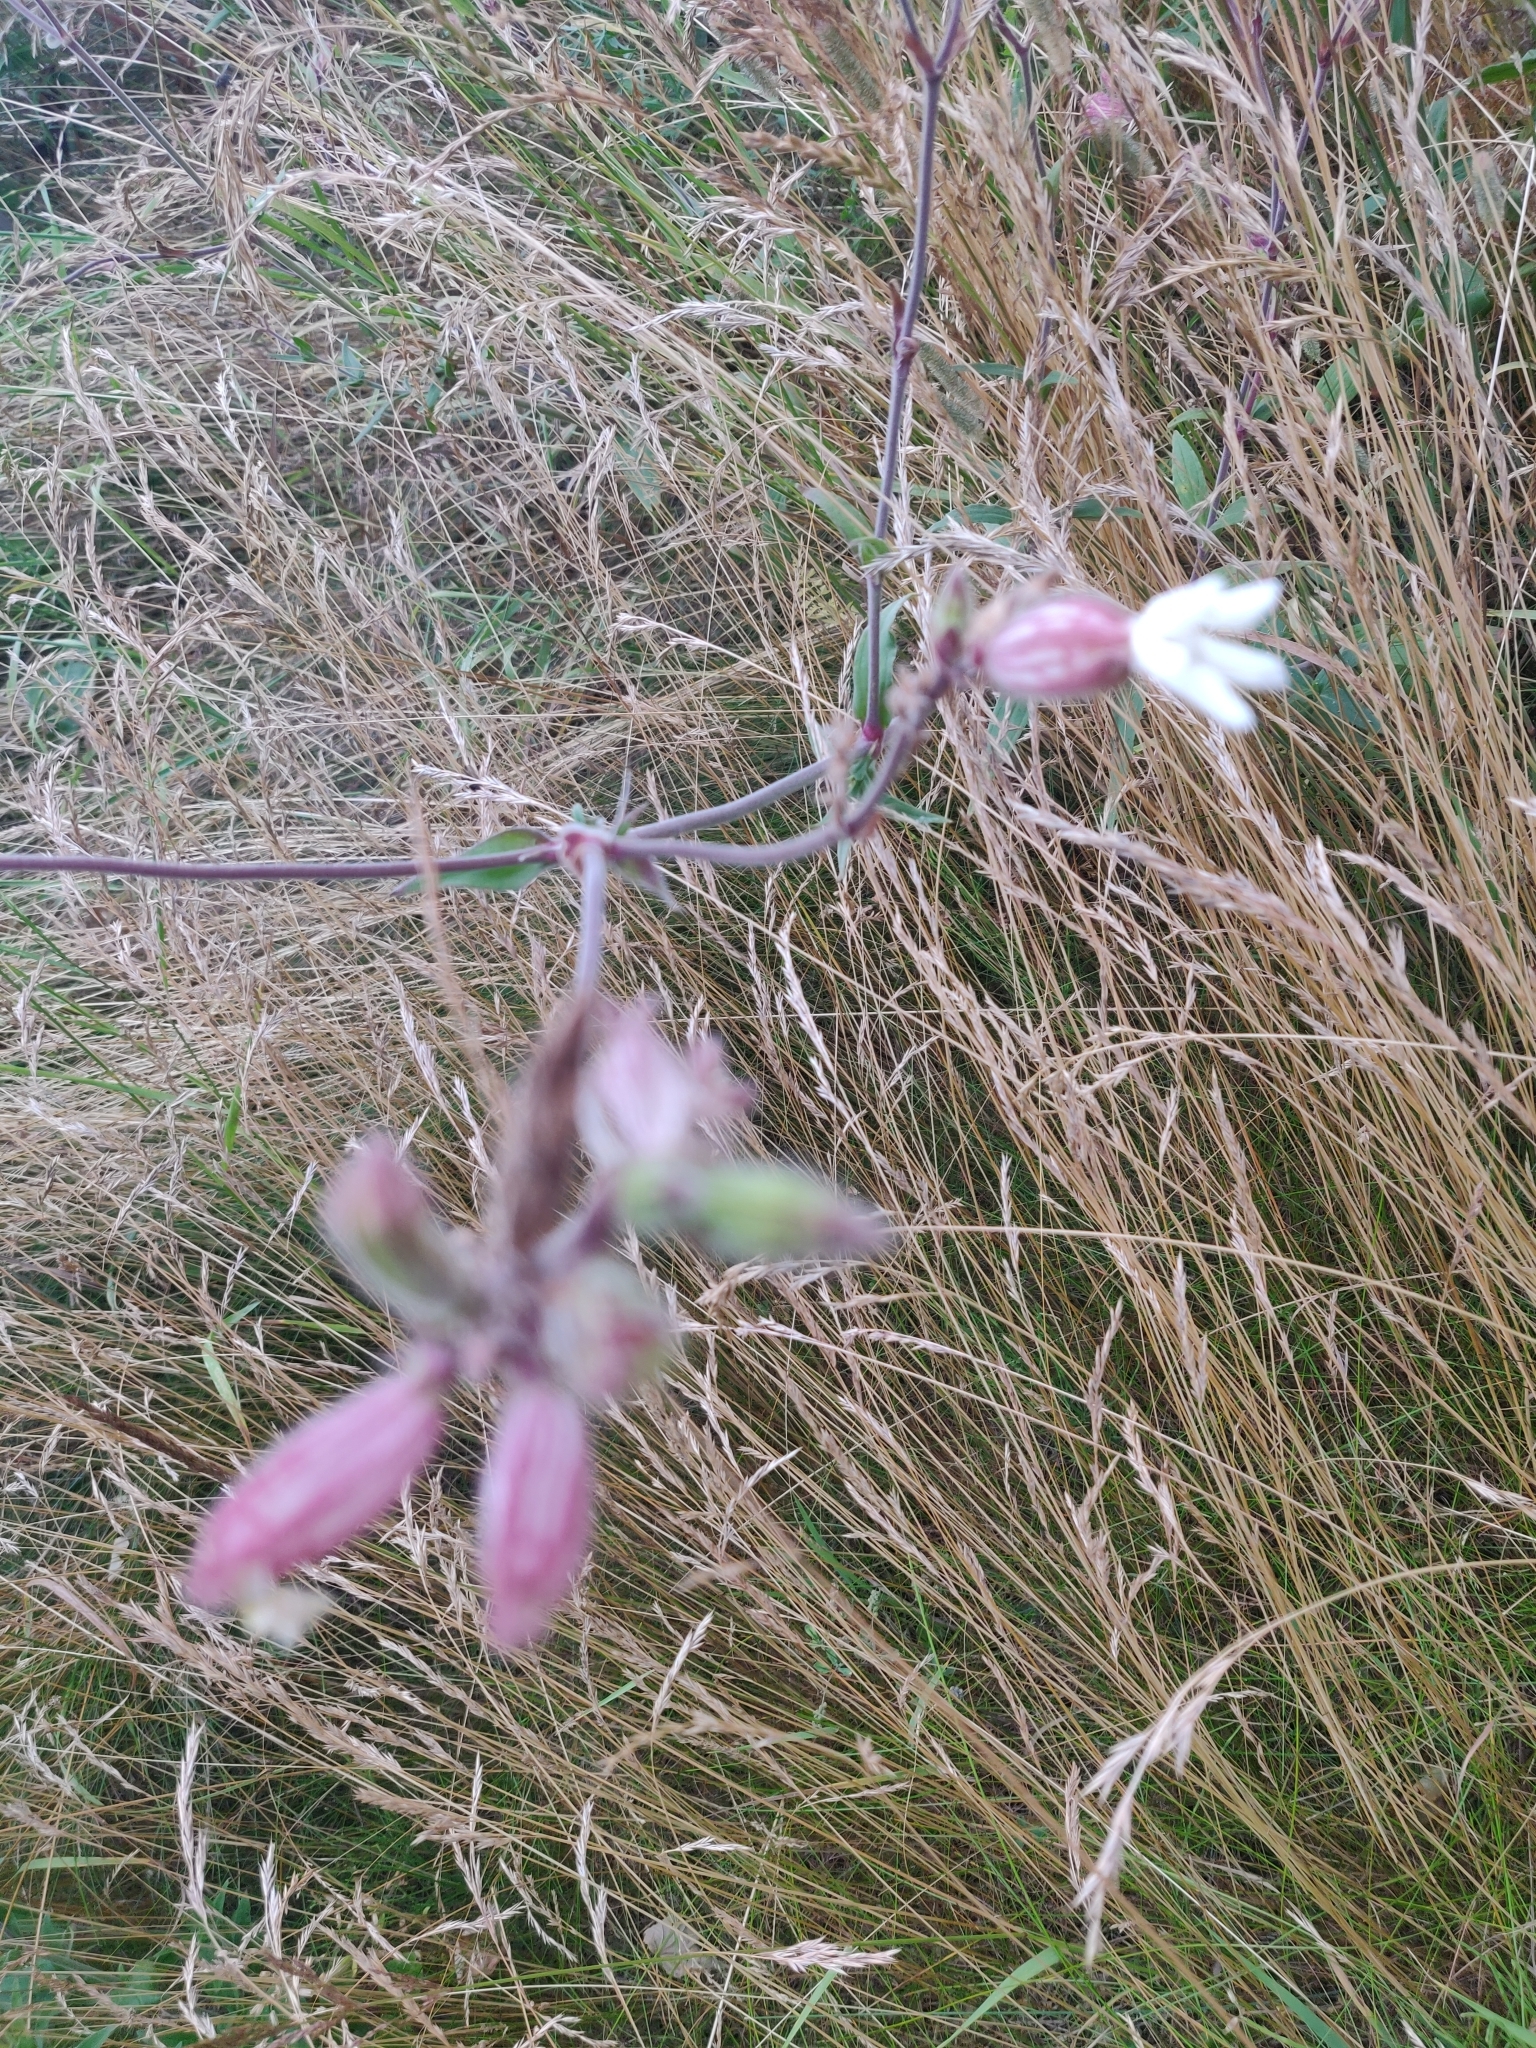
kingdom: Plantae
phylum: Tracheophyta
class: Magnoliopsida
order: Caryophyllales
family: Caryophyllaceae
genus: Silene
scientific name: Silene latifolia
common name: White campion
